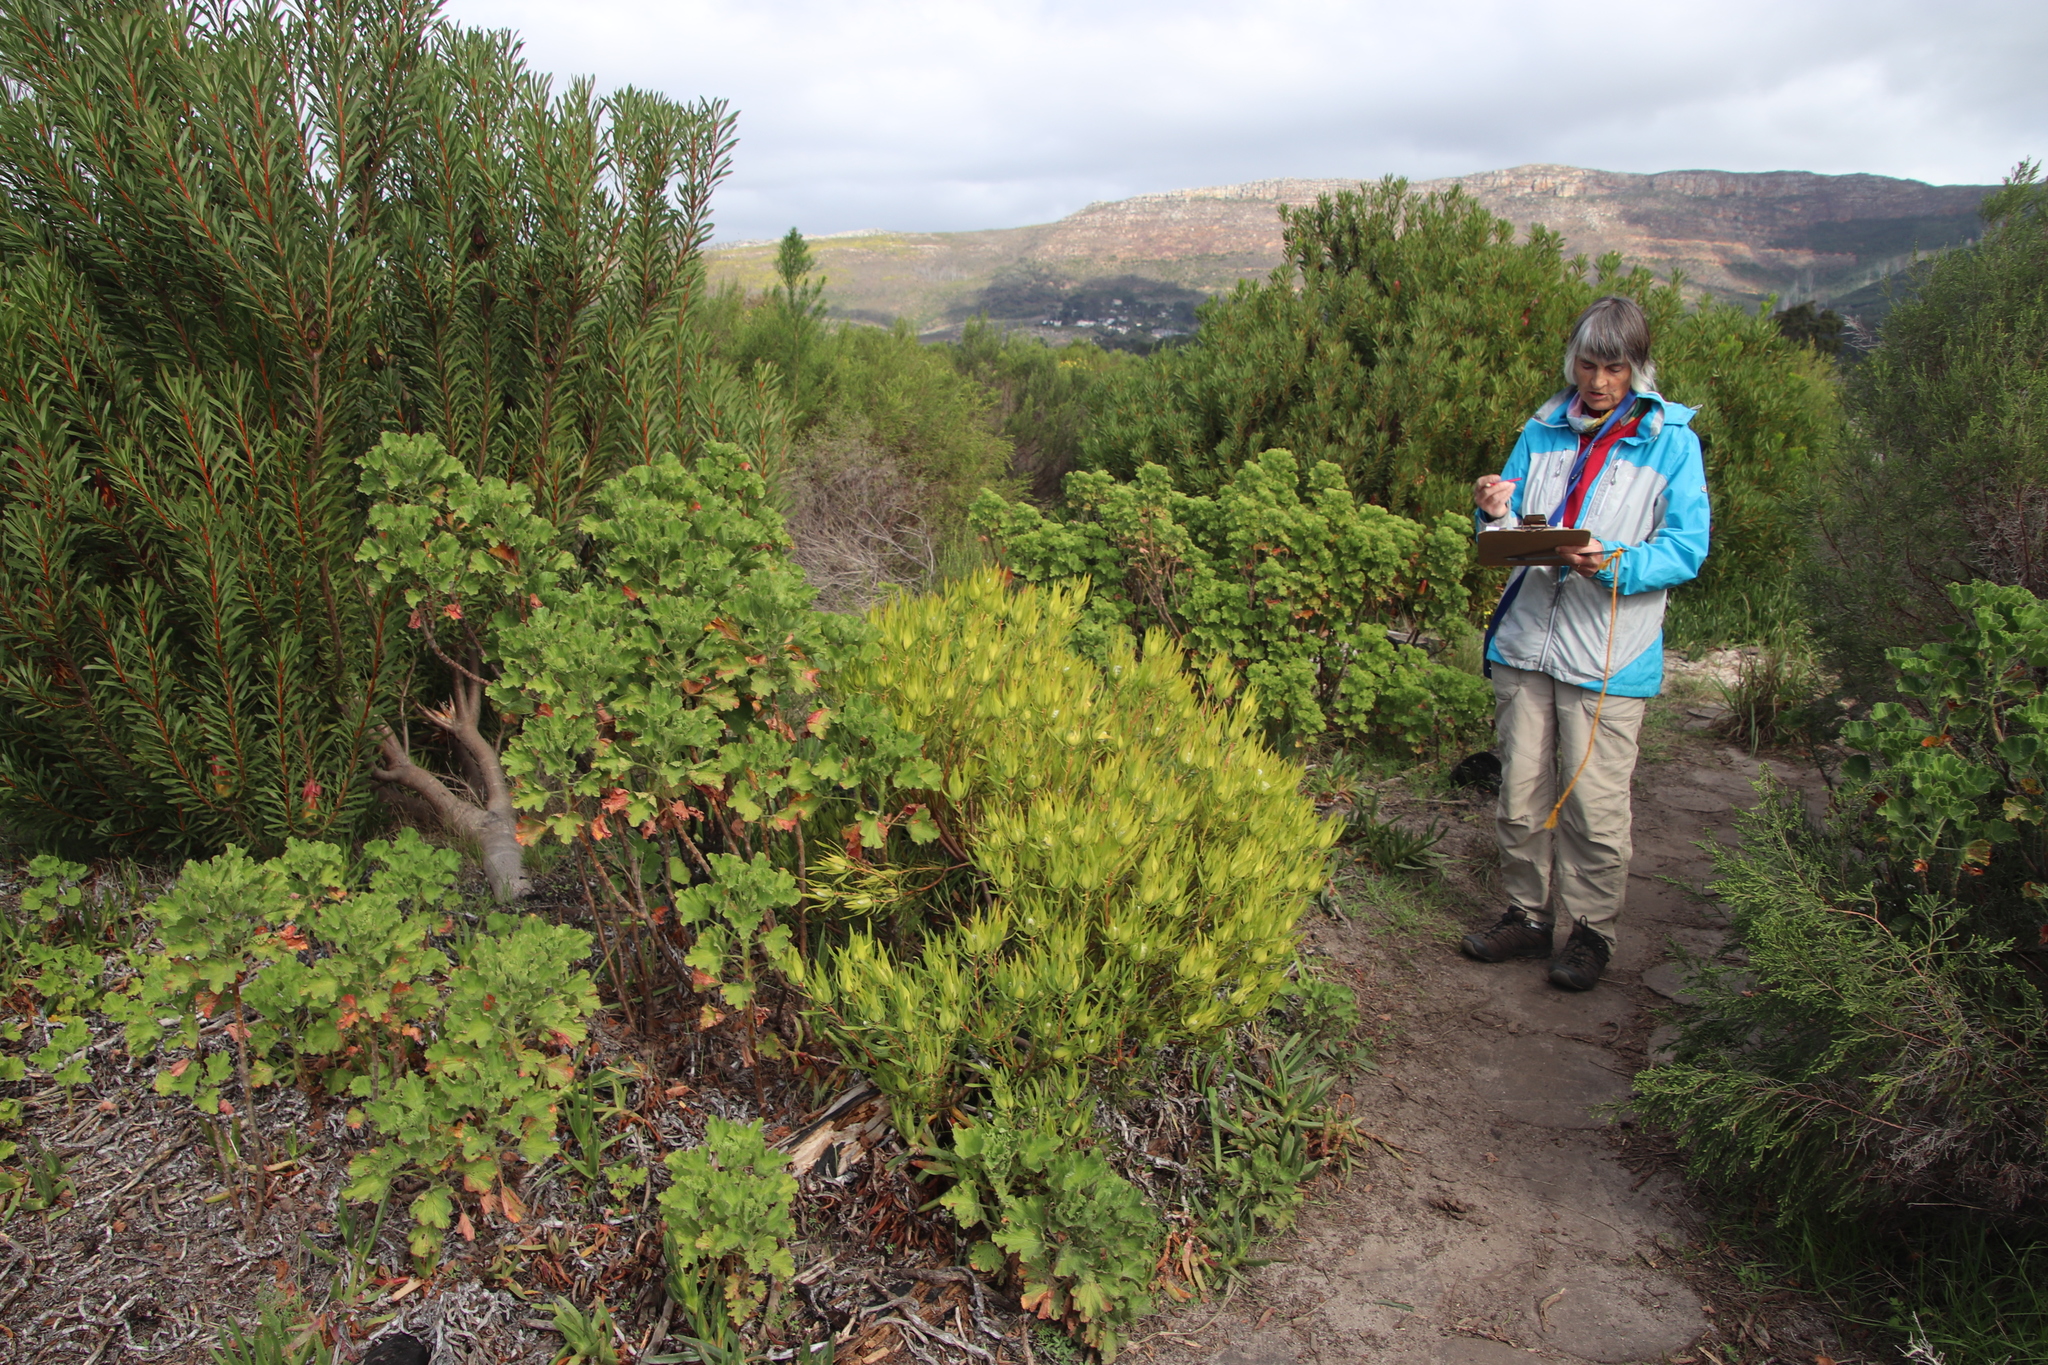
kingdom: Plantae
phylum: Tracheophyta
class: Magnoliopsida
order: Proteales
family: Proteaceae
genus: Leucadendron
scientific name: Leucadendron salignum
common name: Common sunshine conebush
